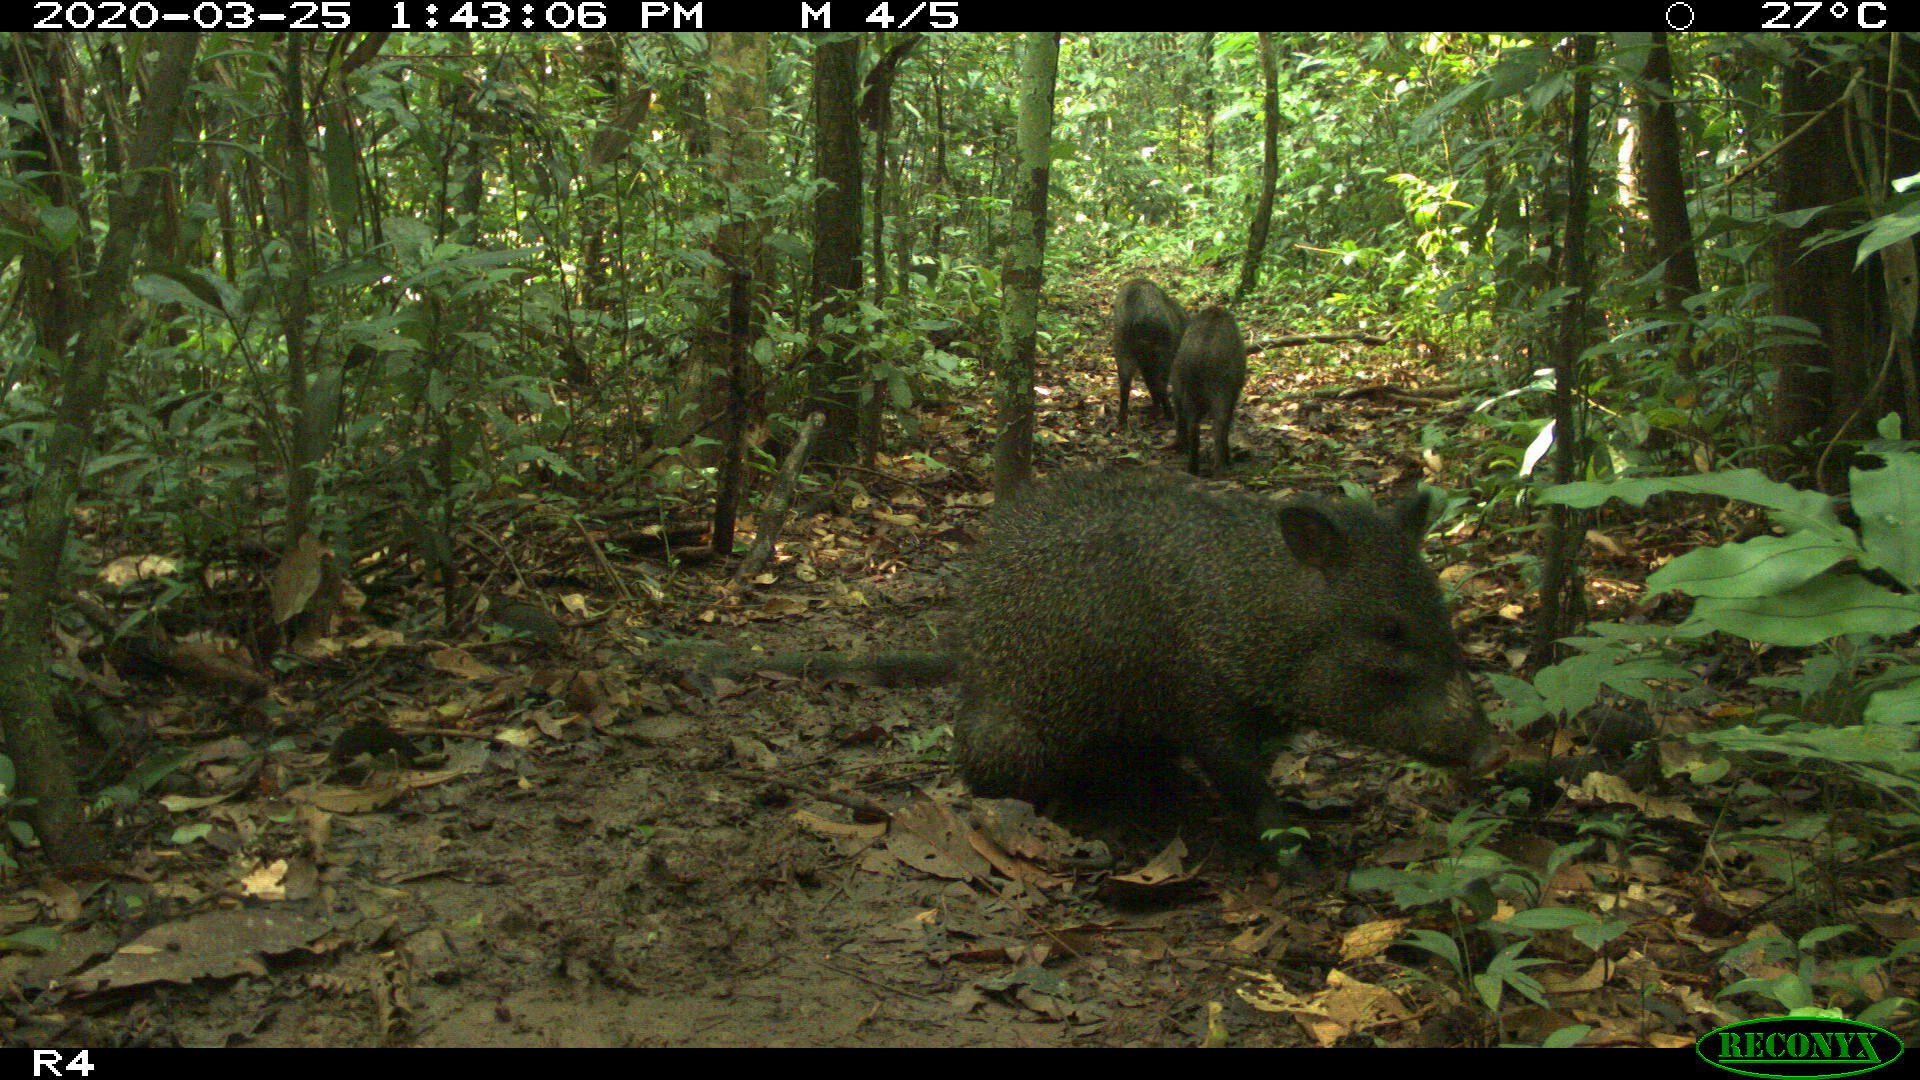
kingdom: Animalia
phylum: Chordata
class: Mammalia
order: Artiodactyla
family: Tayassuidae
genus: Pecari
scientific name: Pecari tajacu
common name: Collared peccary
